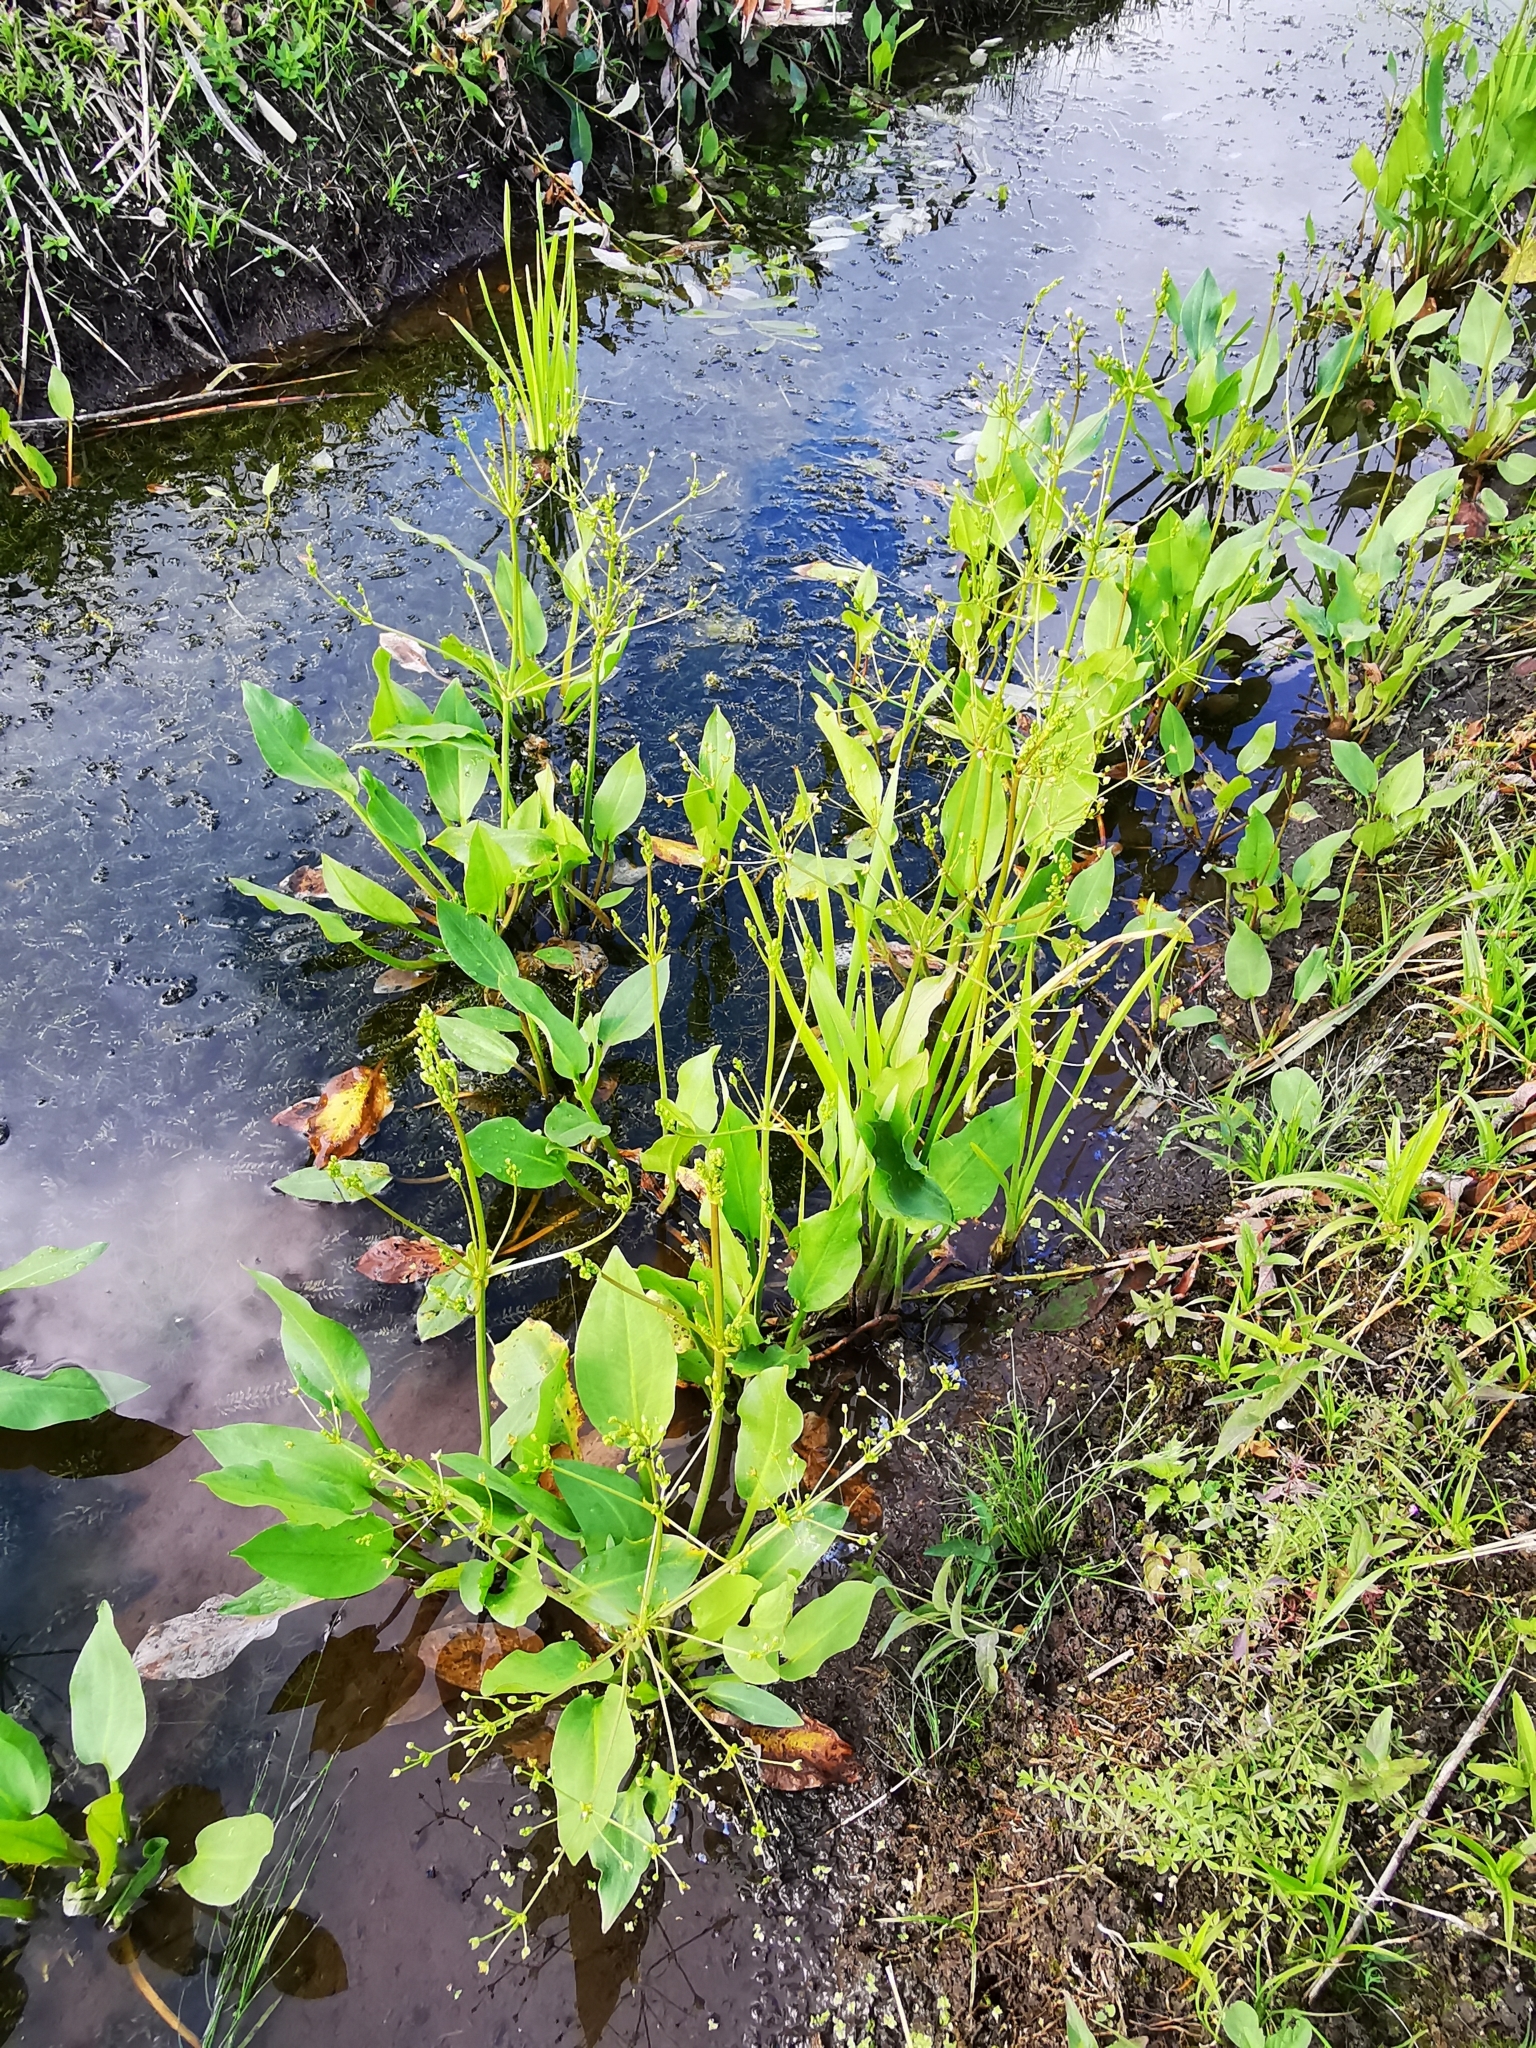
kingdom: Plantae
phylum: Tracheophyta
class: Liliopsida
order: Alismatales
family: Alismataceae
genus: Alisma
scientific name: Alisma plantago-aquatica
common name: Water-plantain
